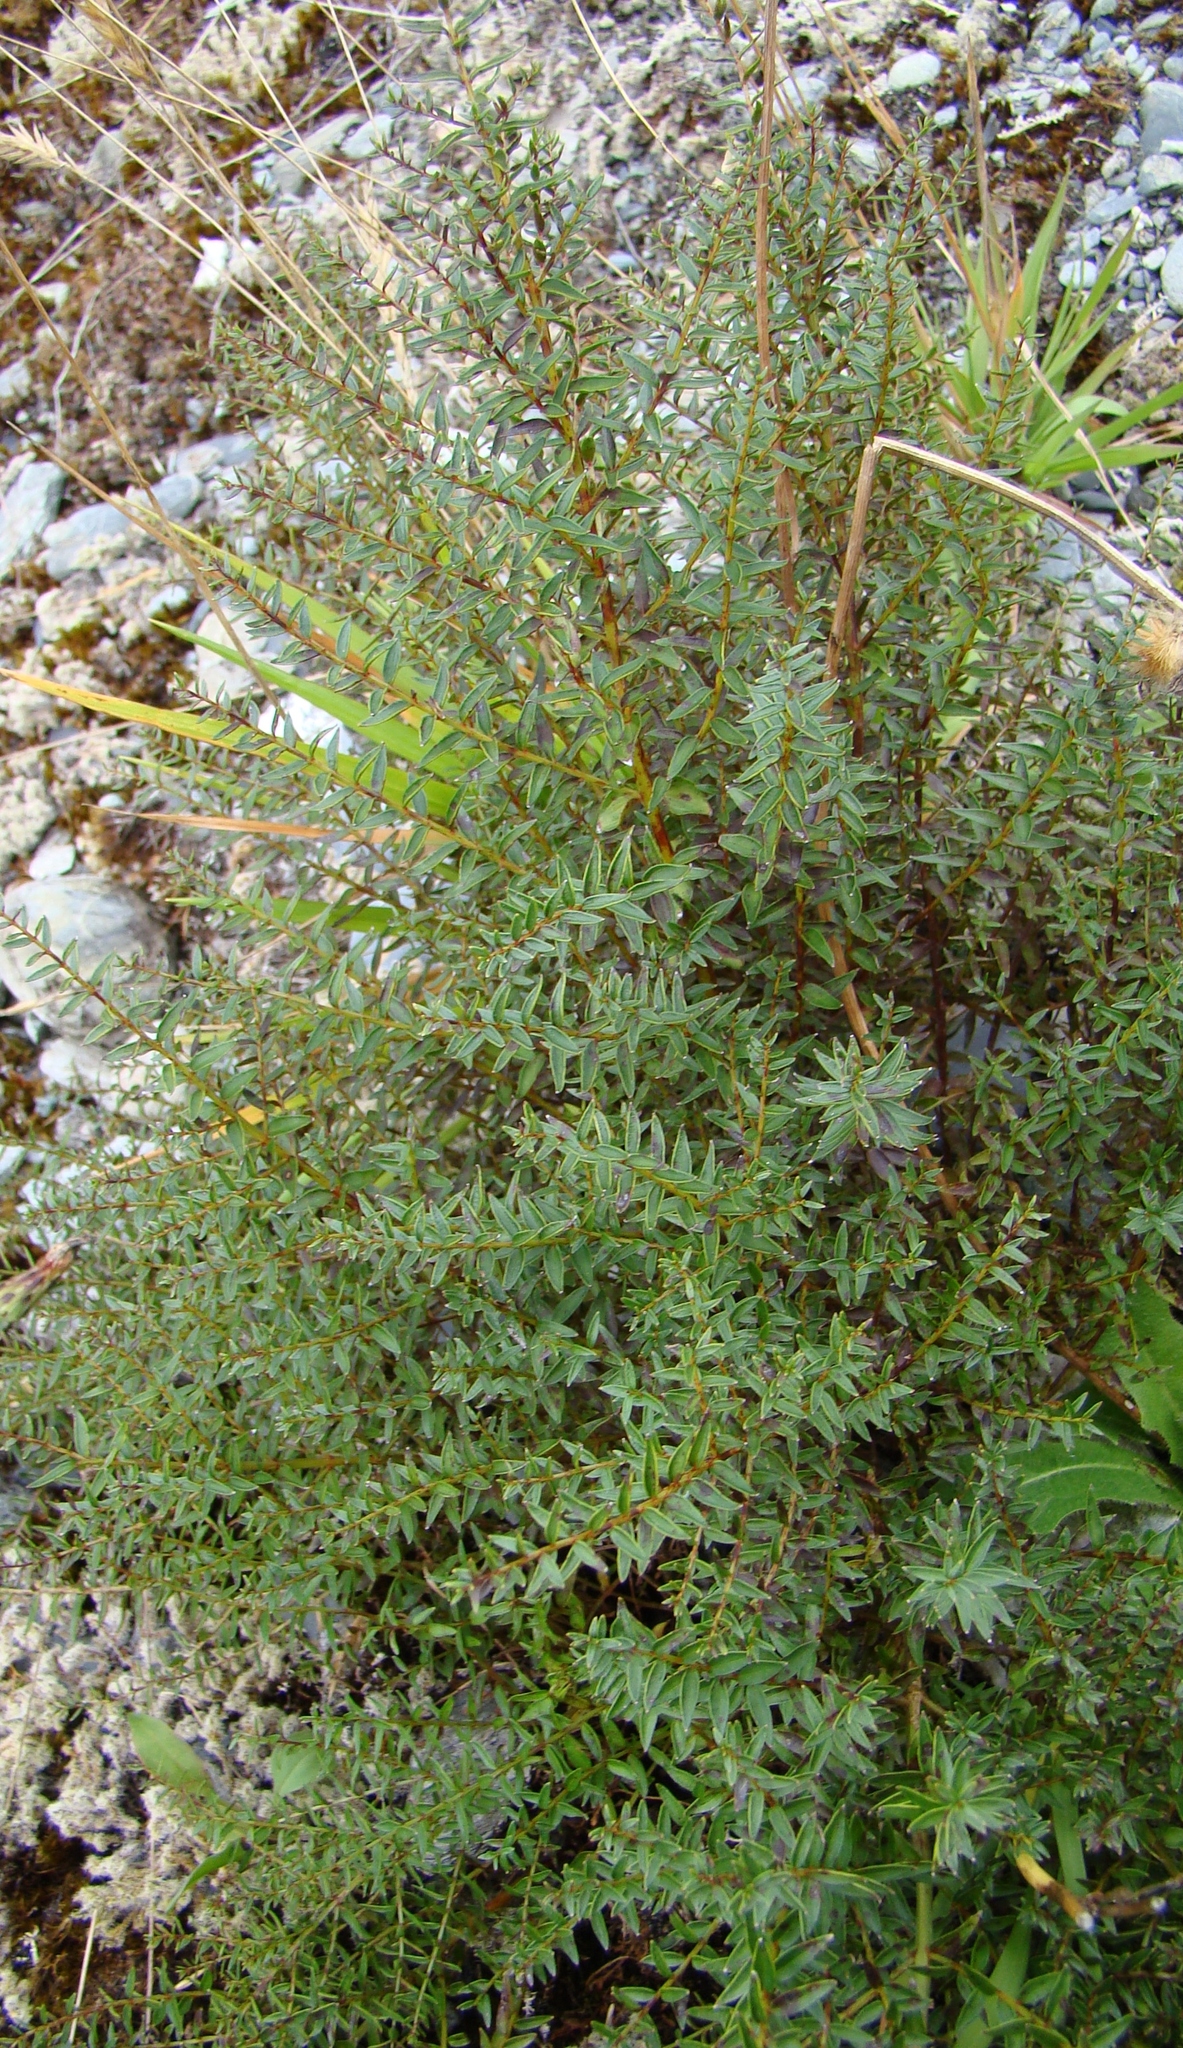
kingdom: Plantae
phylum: Tracheophyta
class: Magnoliopsida
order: Cucurbitales
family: Coriariaceae
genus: Coriaria
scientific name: Coriaria angustissima
